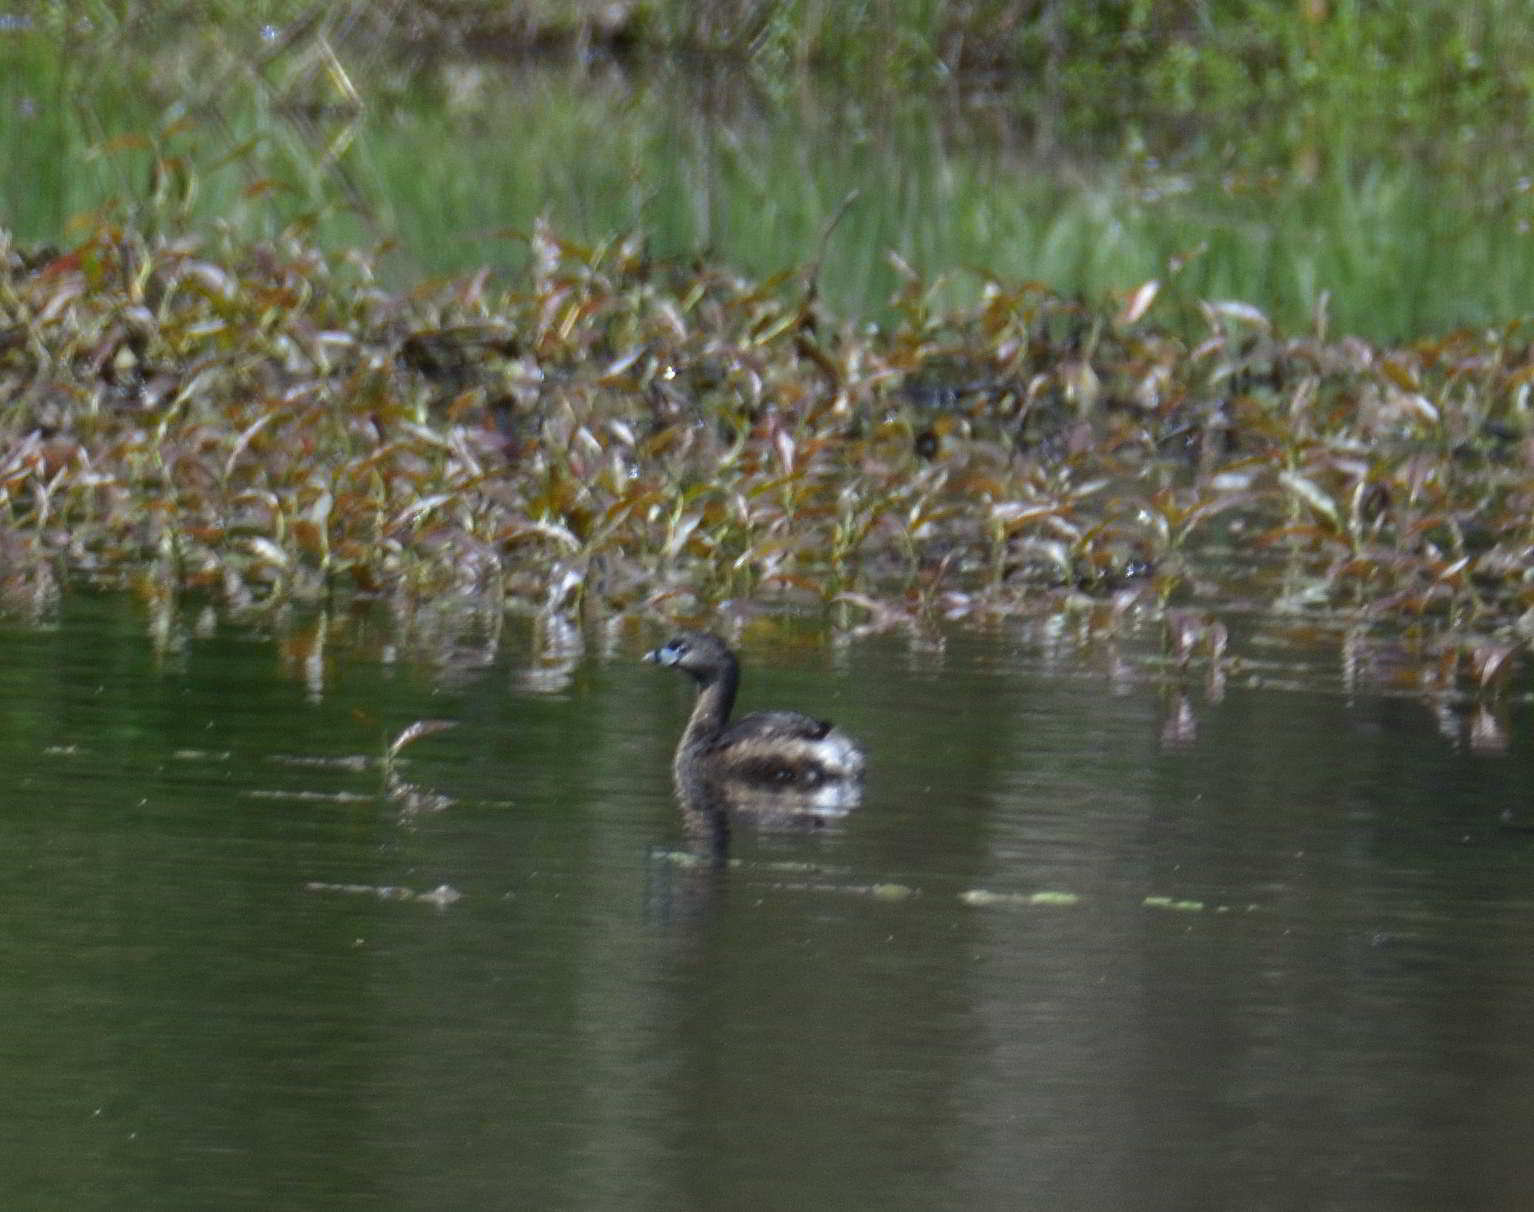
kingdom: Animalia
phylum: Chordata
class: Aves
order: Podicipediformes
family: Podicipedidae
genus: Podilymbus
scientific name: Podilymbus podiceps
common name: Pied-billed grebe
